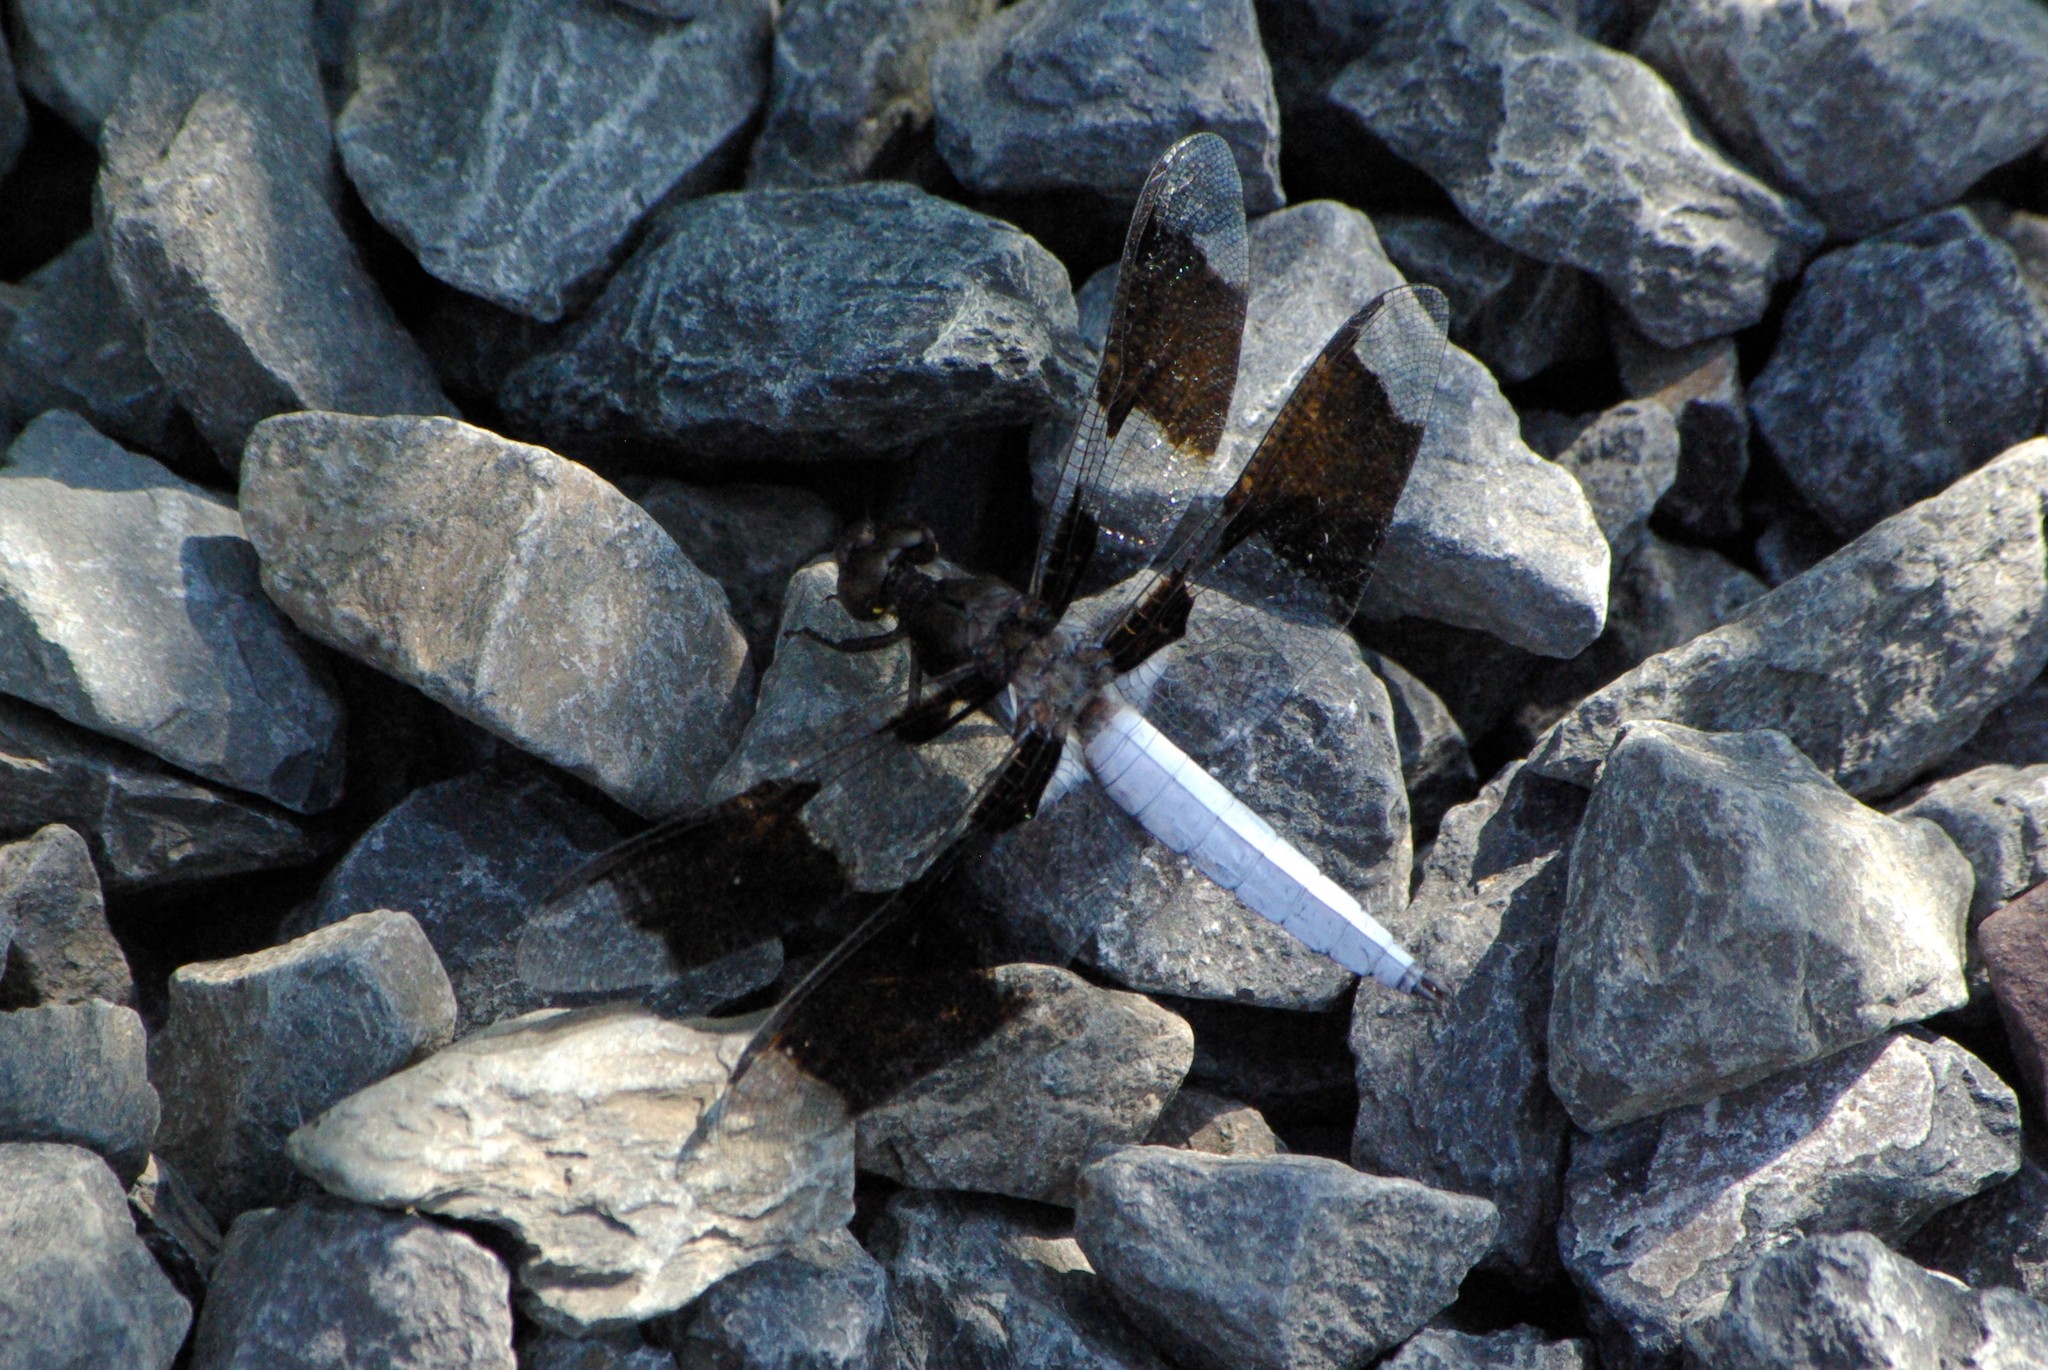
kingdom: Animalia
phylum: Arthropoda
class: Insecta
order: Odonata
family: Libellulidae
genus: Plathemis
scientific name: Plathemis lydia
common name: Common whitetail
